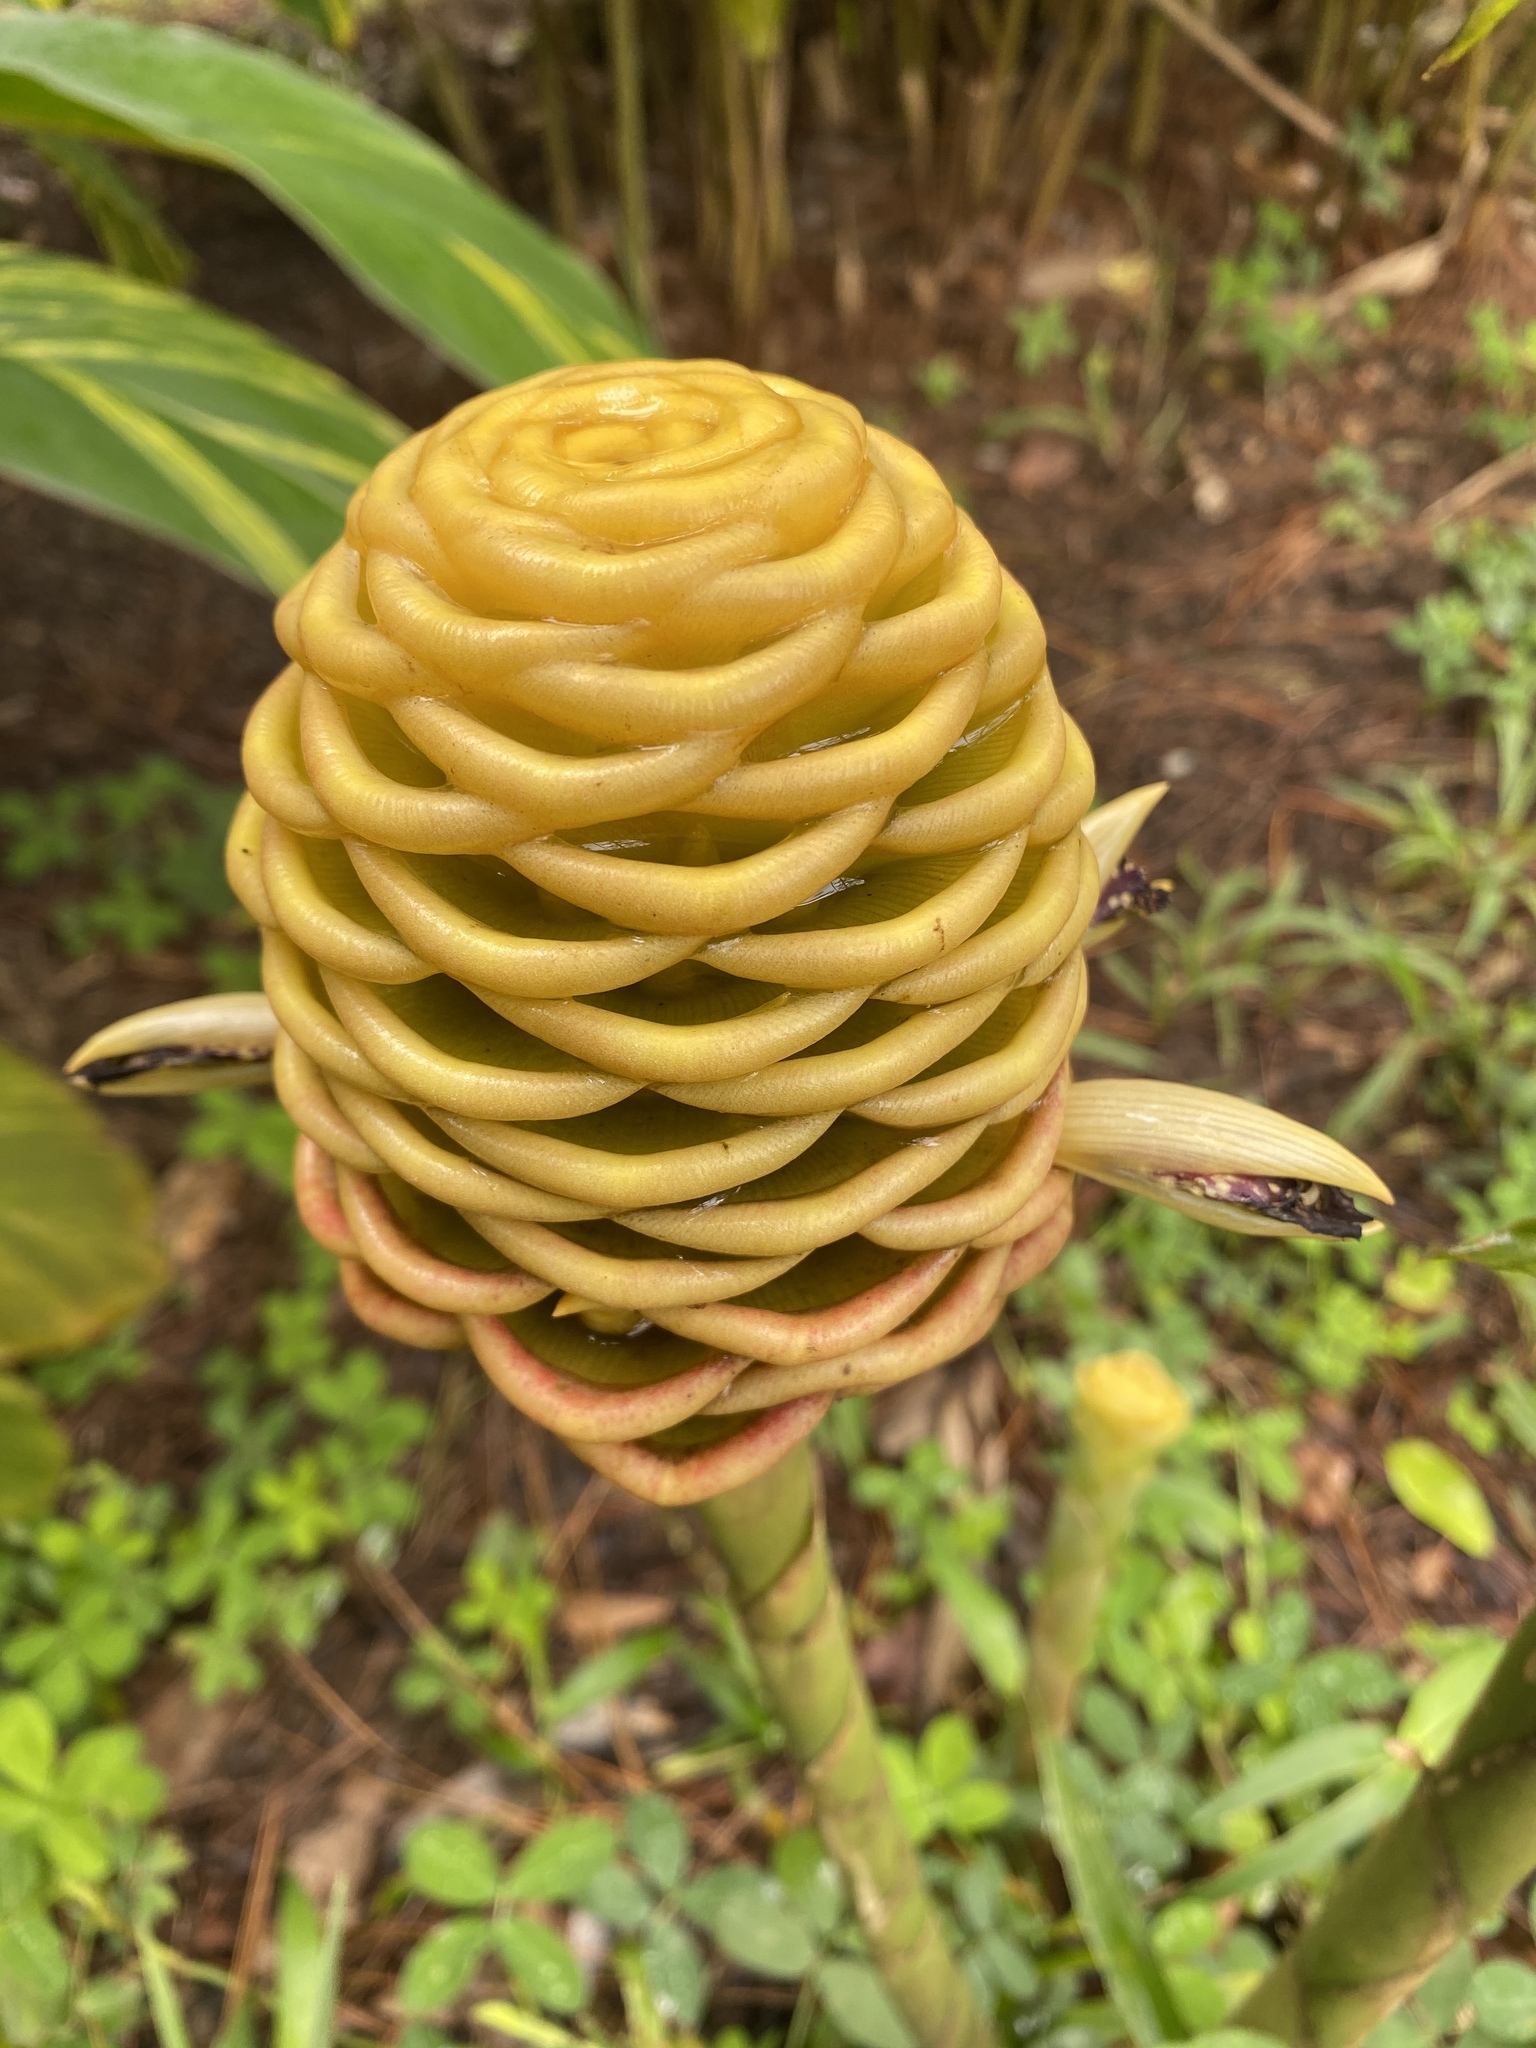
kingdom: Plantae
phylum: Tracheophyta
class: Liliopsida
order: Zingiberales
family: Zingiberaceae
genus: Zingiber
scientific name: Zingiber spectabile
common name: Beehive ginger
